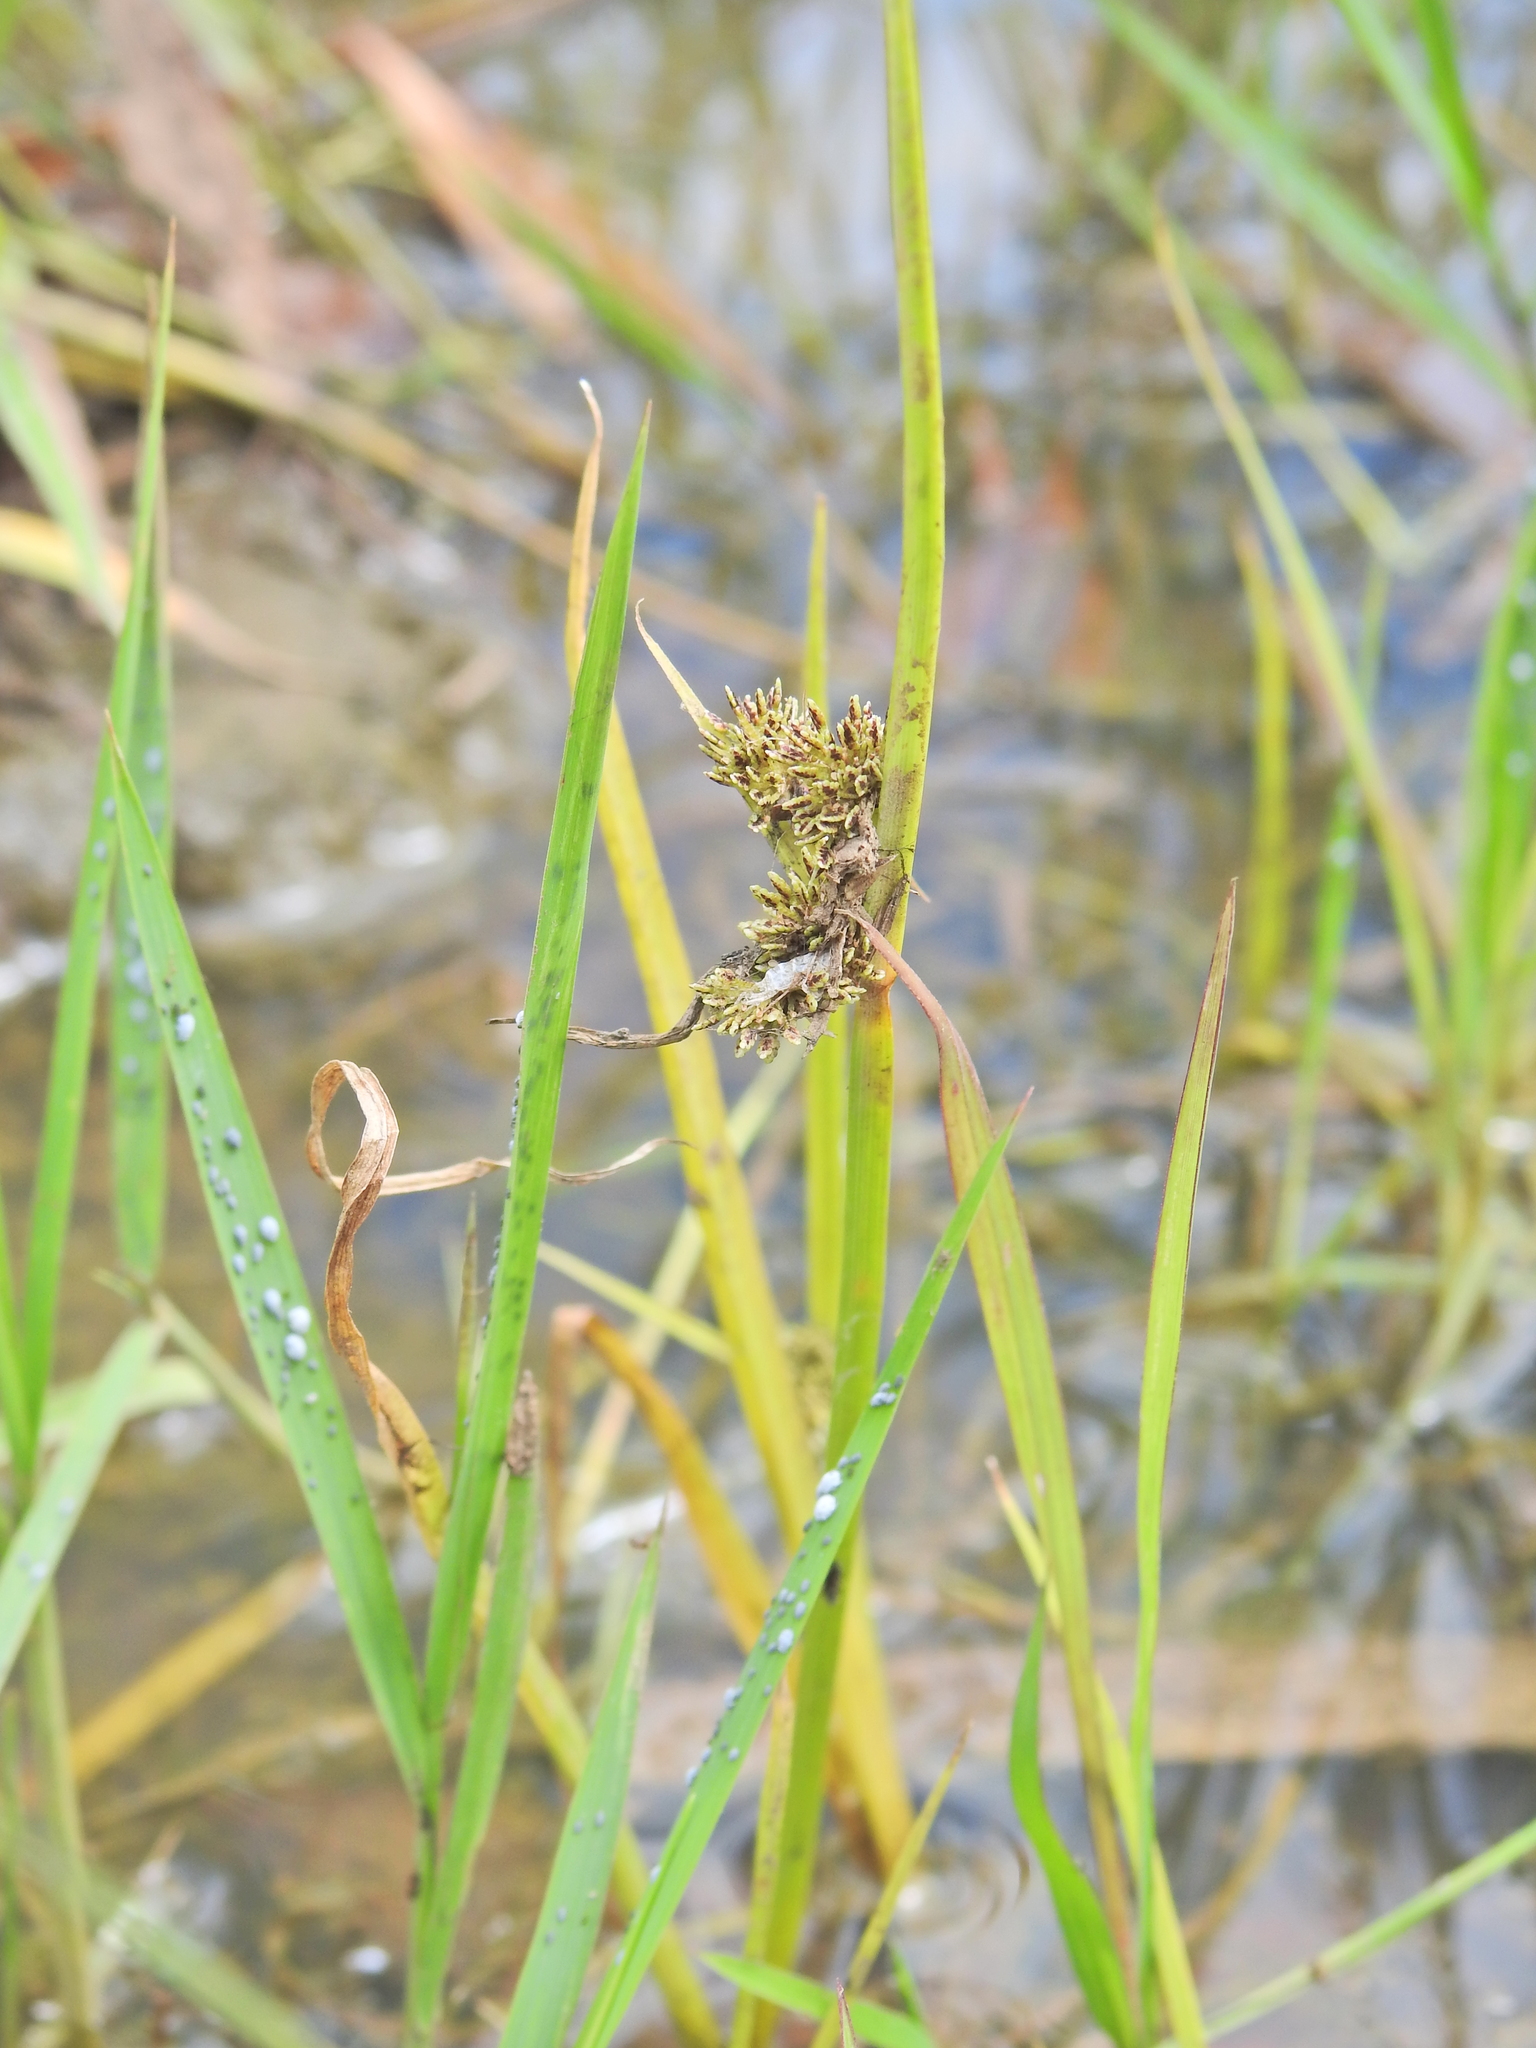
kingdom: Plantae
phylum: Tracheophyta
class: Liliopsida
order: Poales
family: Cyperaceae
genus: Cyperus
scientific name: Cyperus difformis
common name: Variable flatsedge
